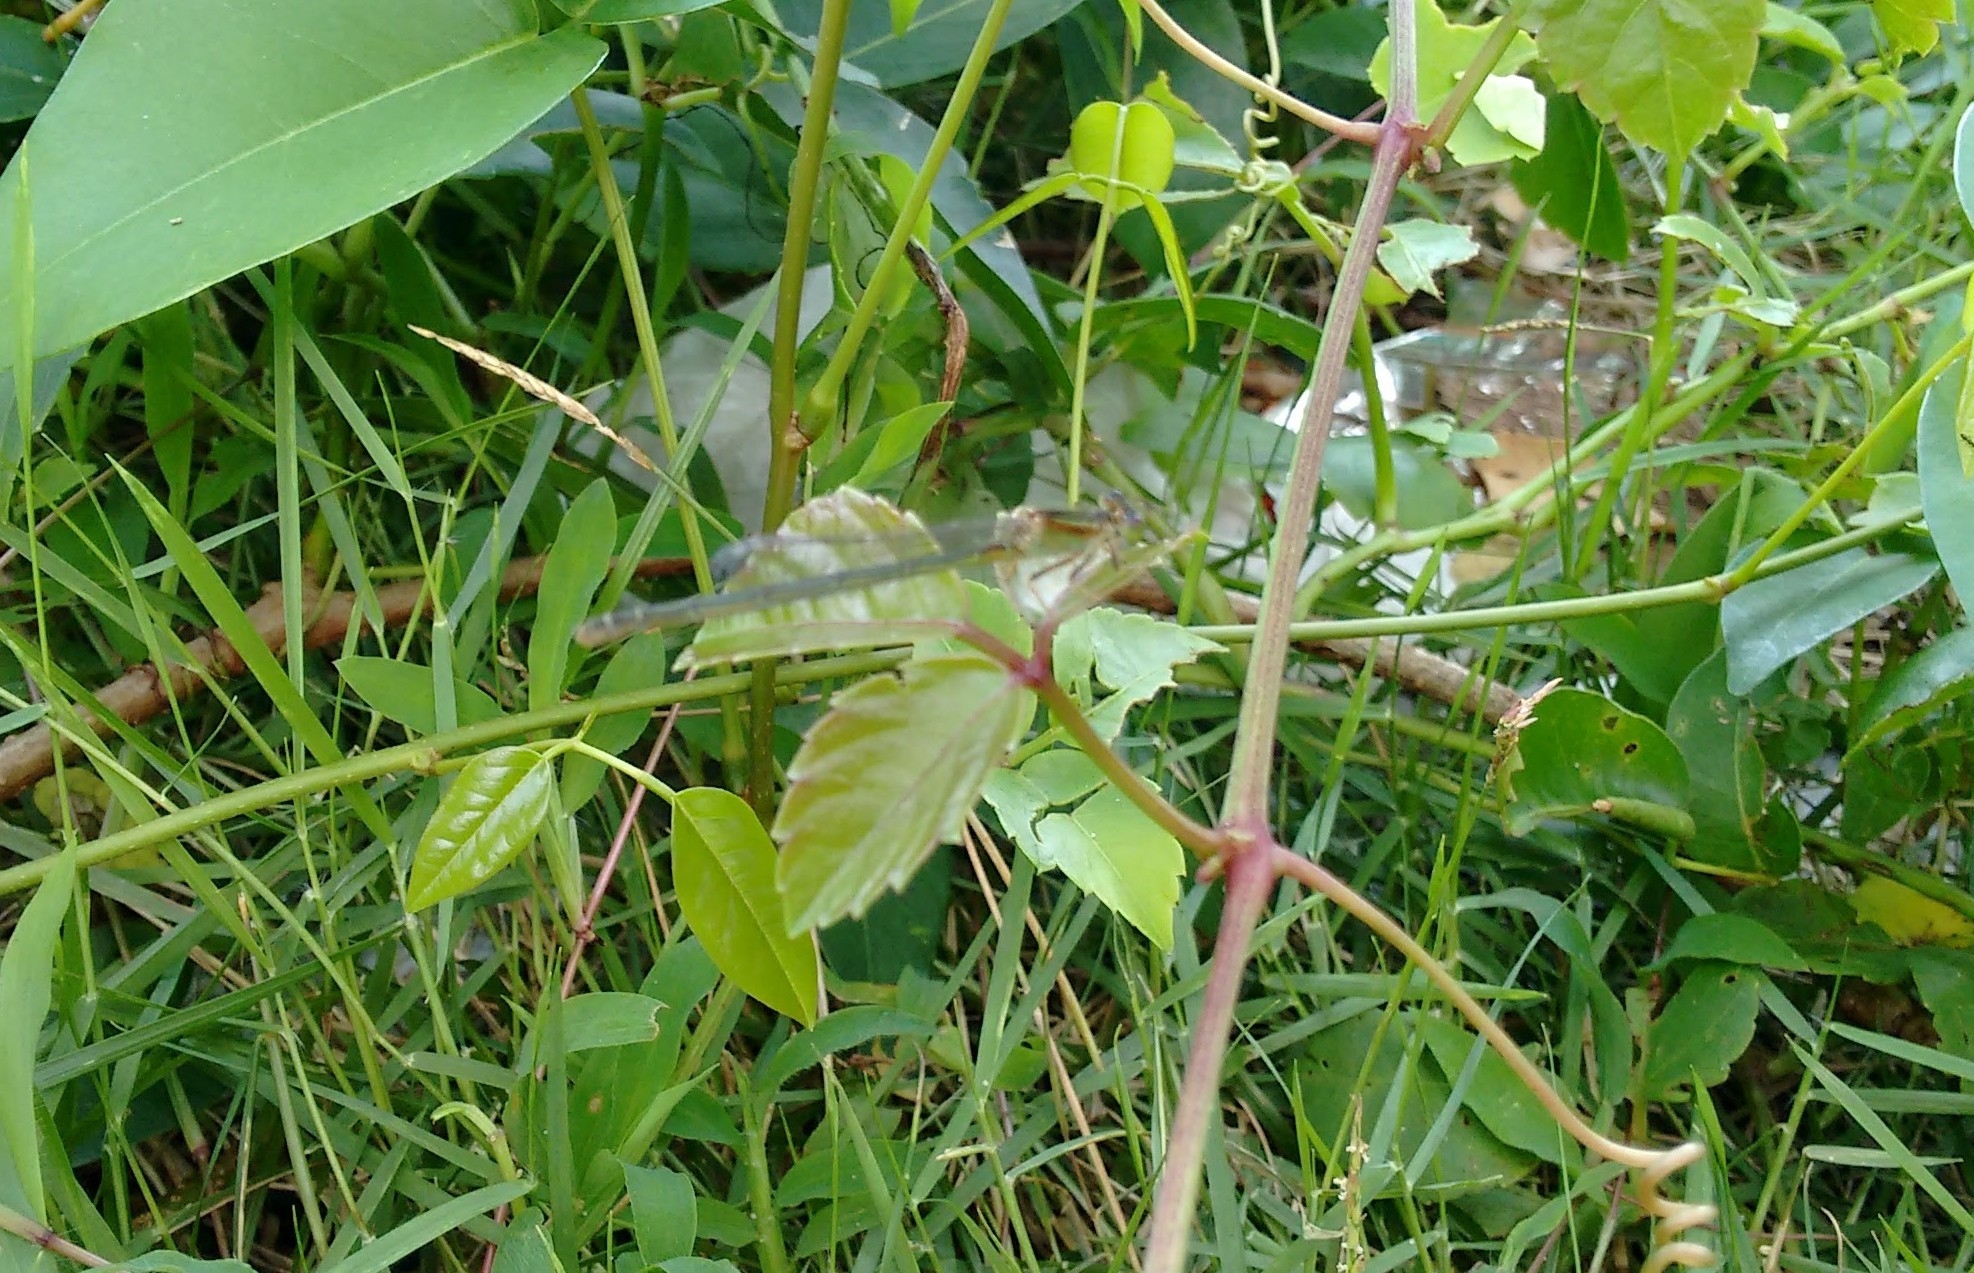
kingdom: Animalia
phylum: Arthropoda
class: Insecta
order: Odonata
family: Coenagrionidae
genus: Ischnura
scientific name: Ischnura senegalensis
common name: Tropical bluetail
